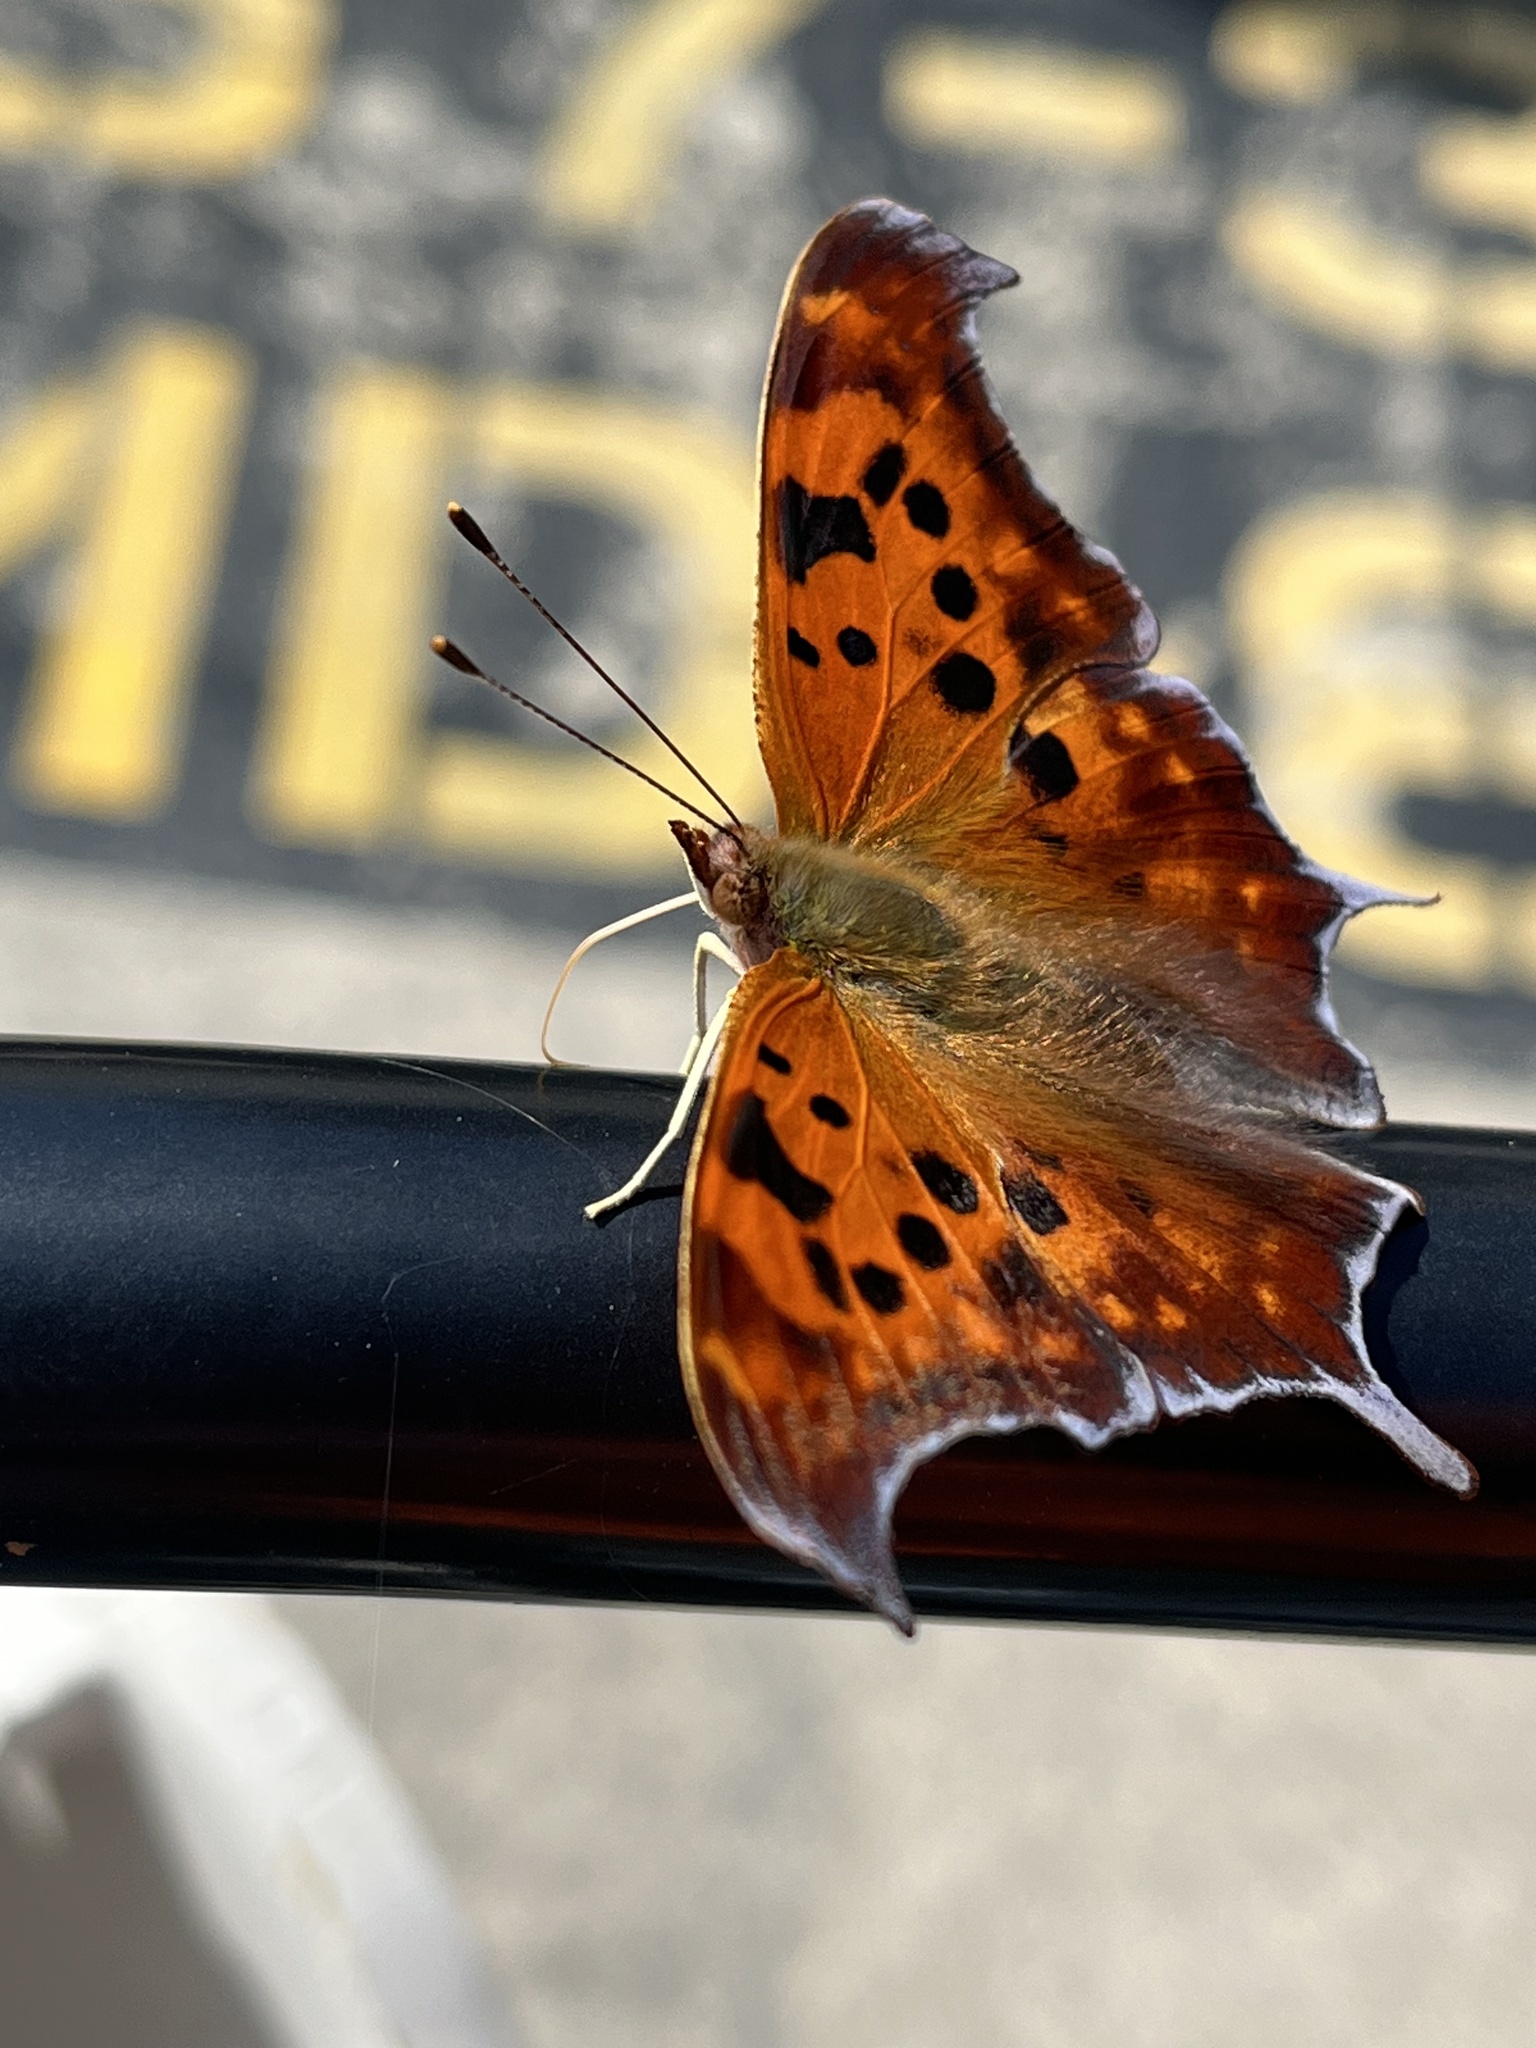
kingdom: Animalia
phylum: Arthropoda
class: Insecta
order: Lepidoptera
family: Nymphalidae
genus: Polygonia
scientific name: Polygonia interrogationis
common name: Question mark
